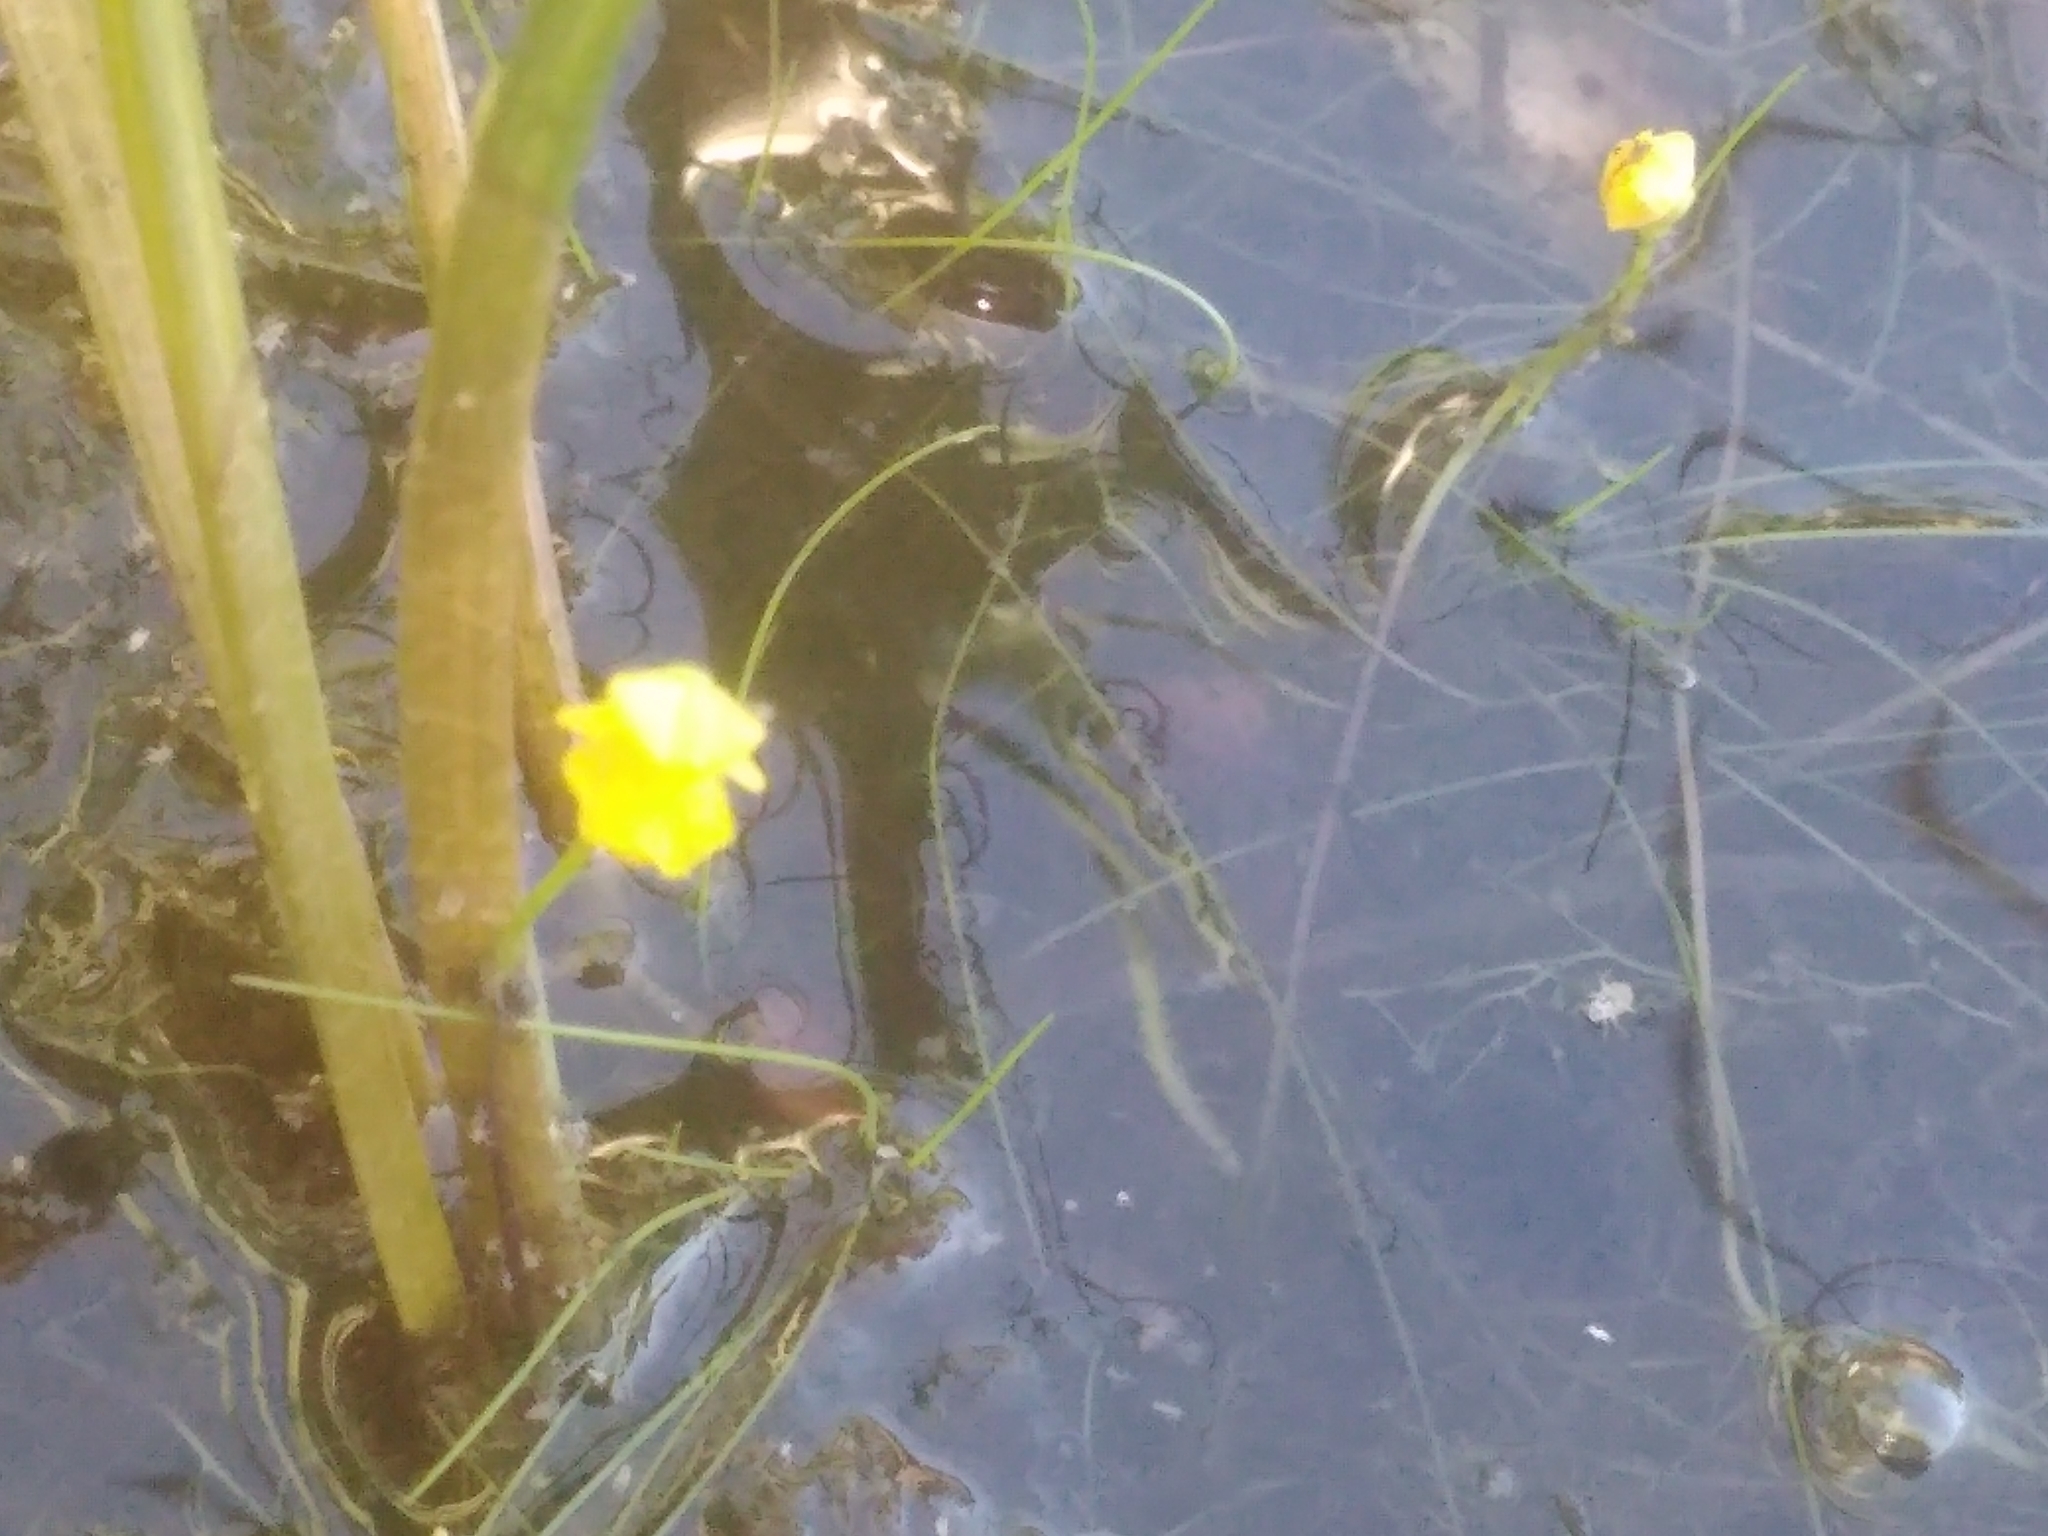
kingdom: Plantae
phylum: Tracheophyta
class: Magnoliopsida
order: Lamiales
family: Lentibulariaceae
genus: Utricularia
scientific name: Utricularia gibba
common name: Humped bladderwort
